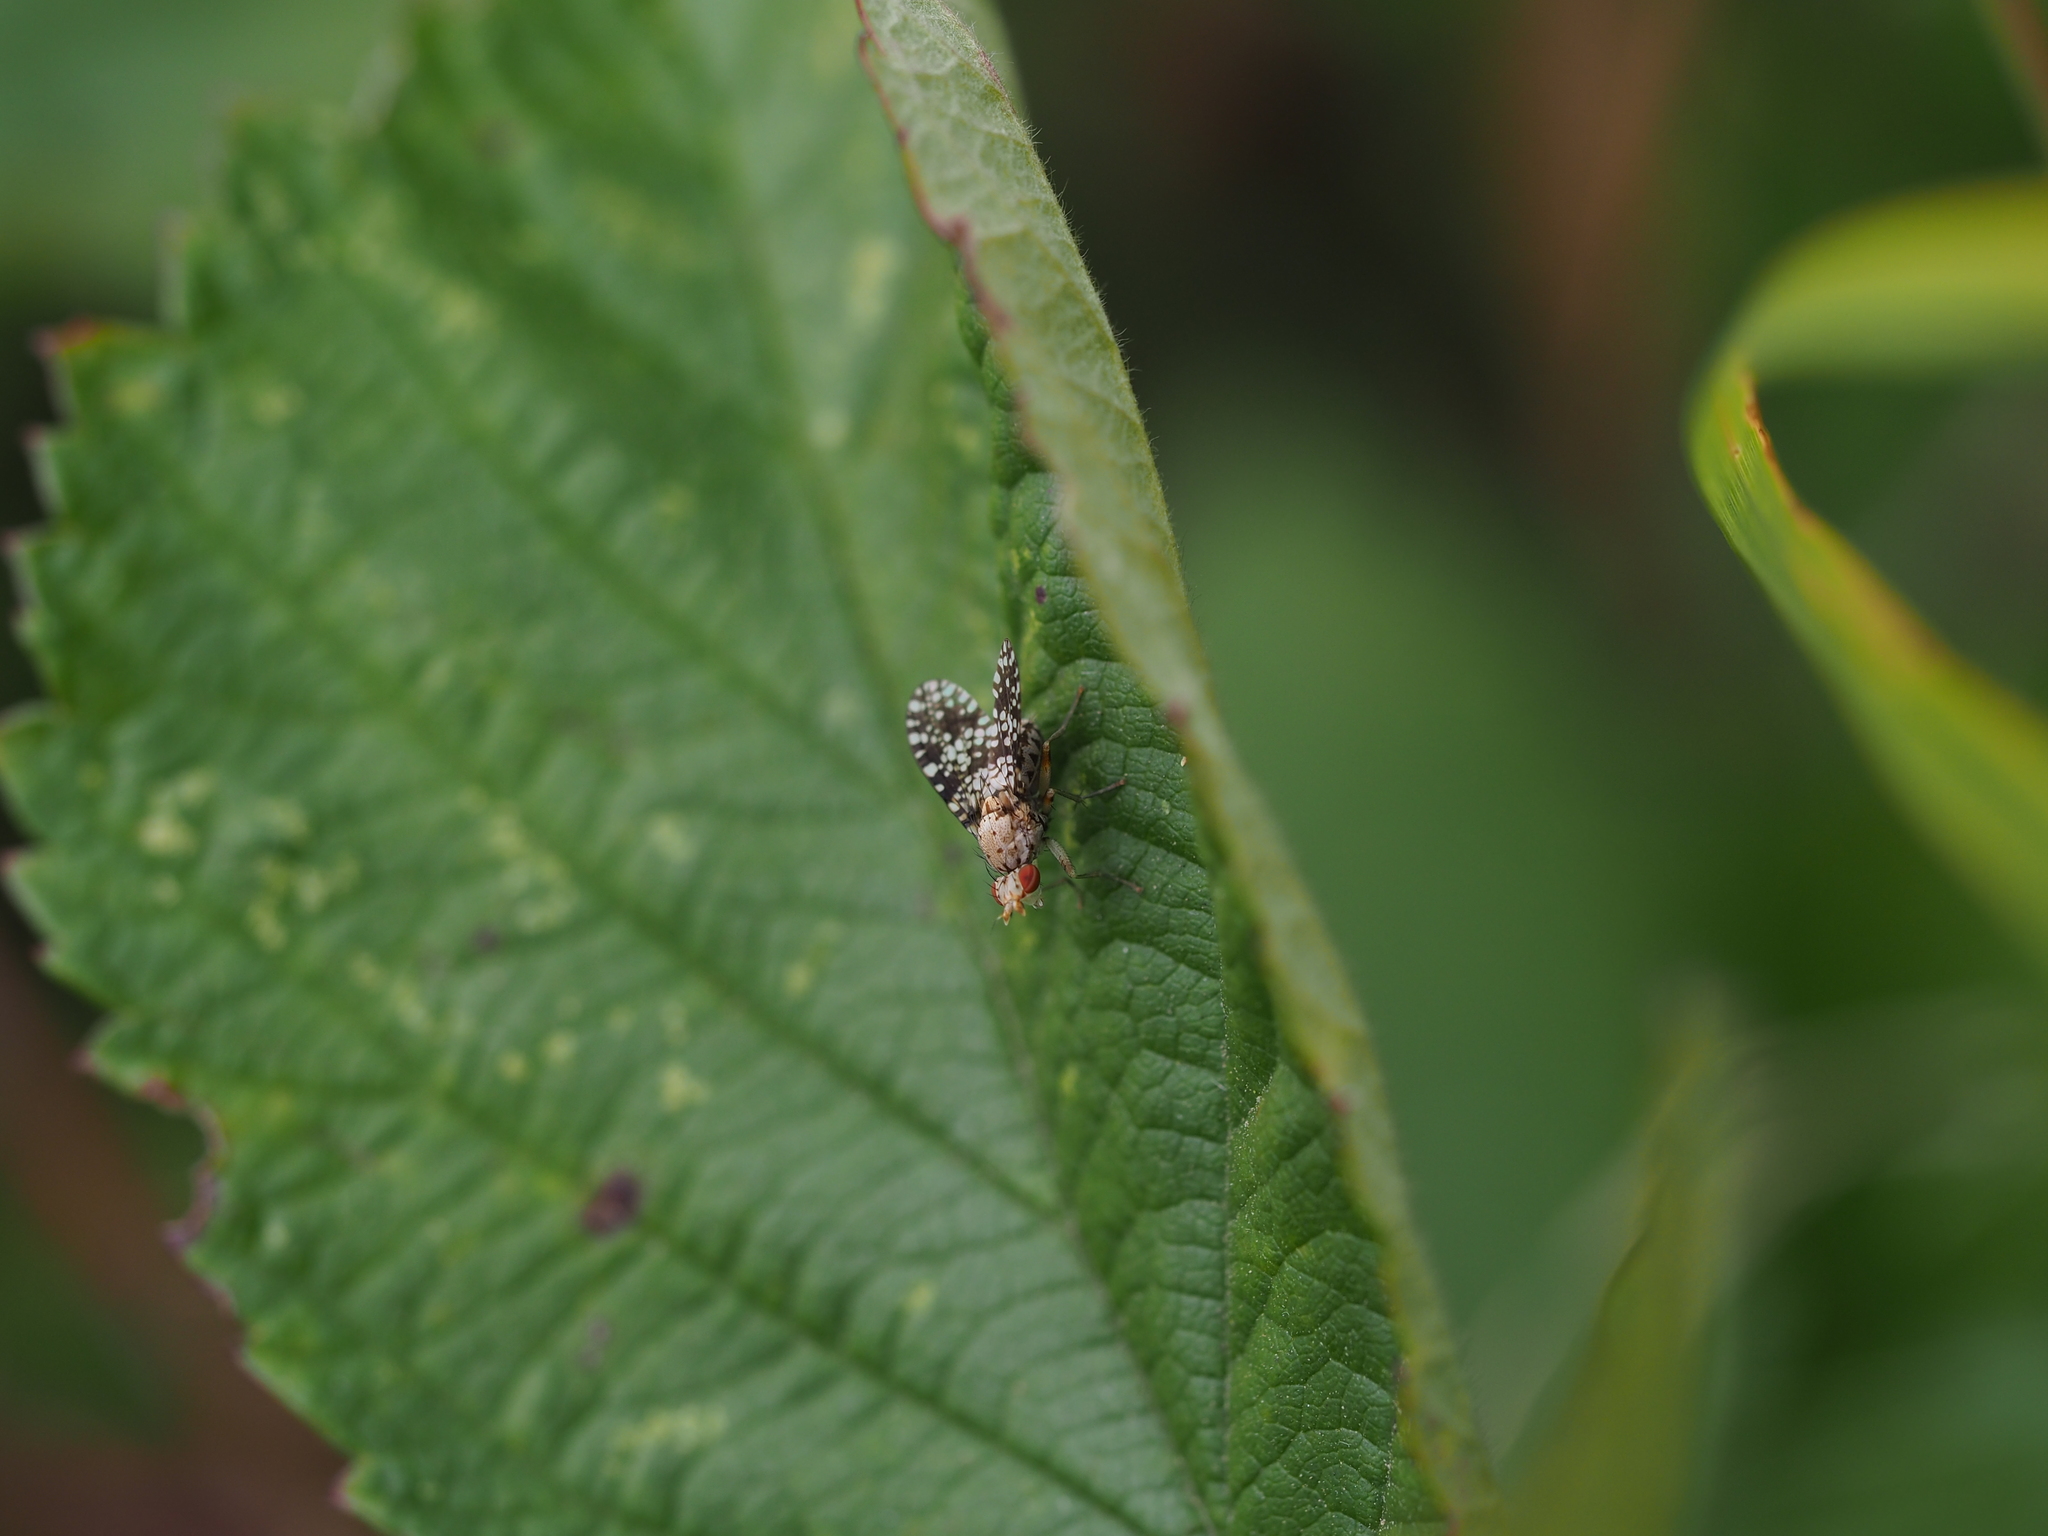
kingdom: Animalia
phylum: Arthropoda
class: Insecta
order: Diptera
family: Sciomyzidae
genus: Trypetoptera
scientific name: Trypetoptera punctulata
